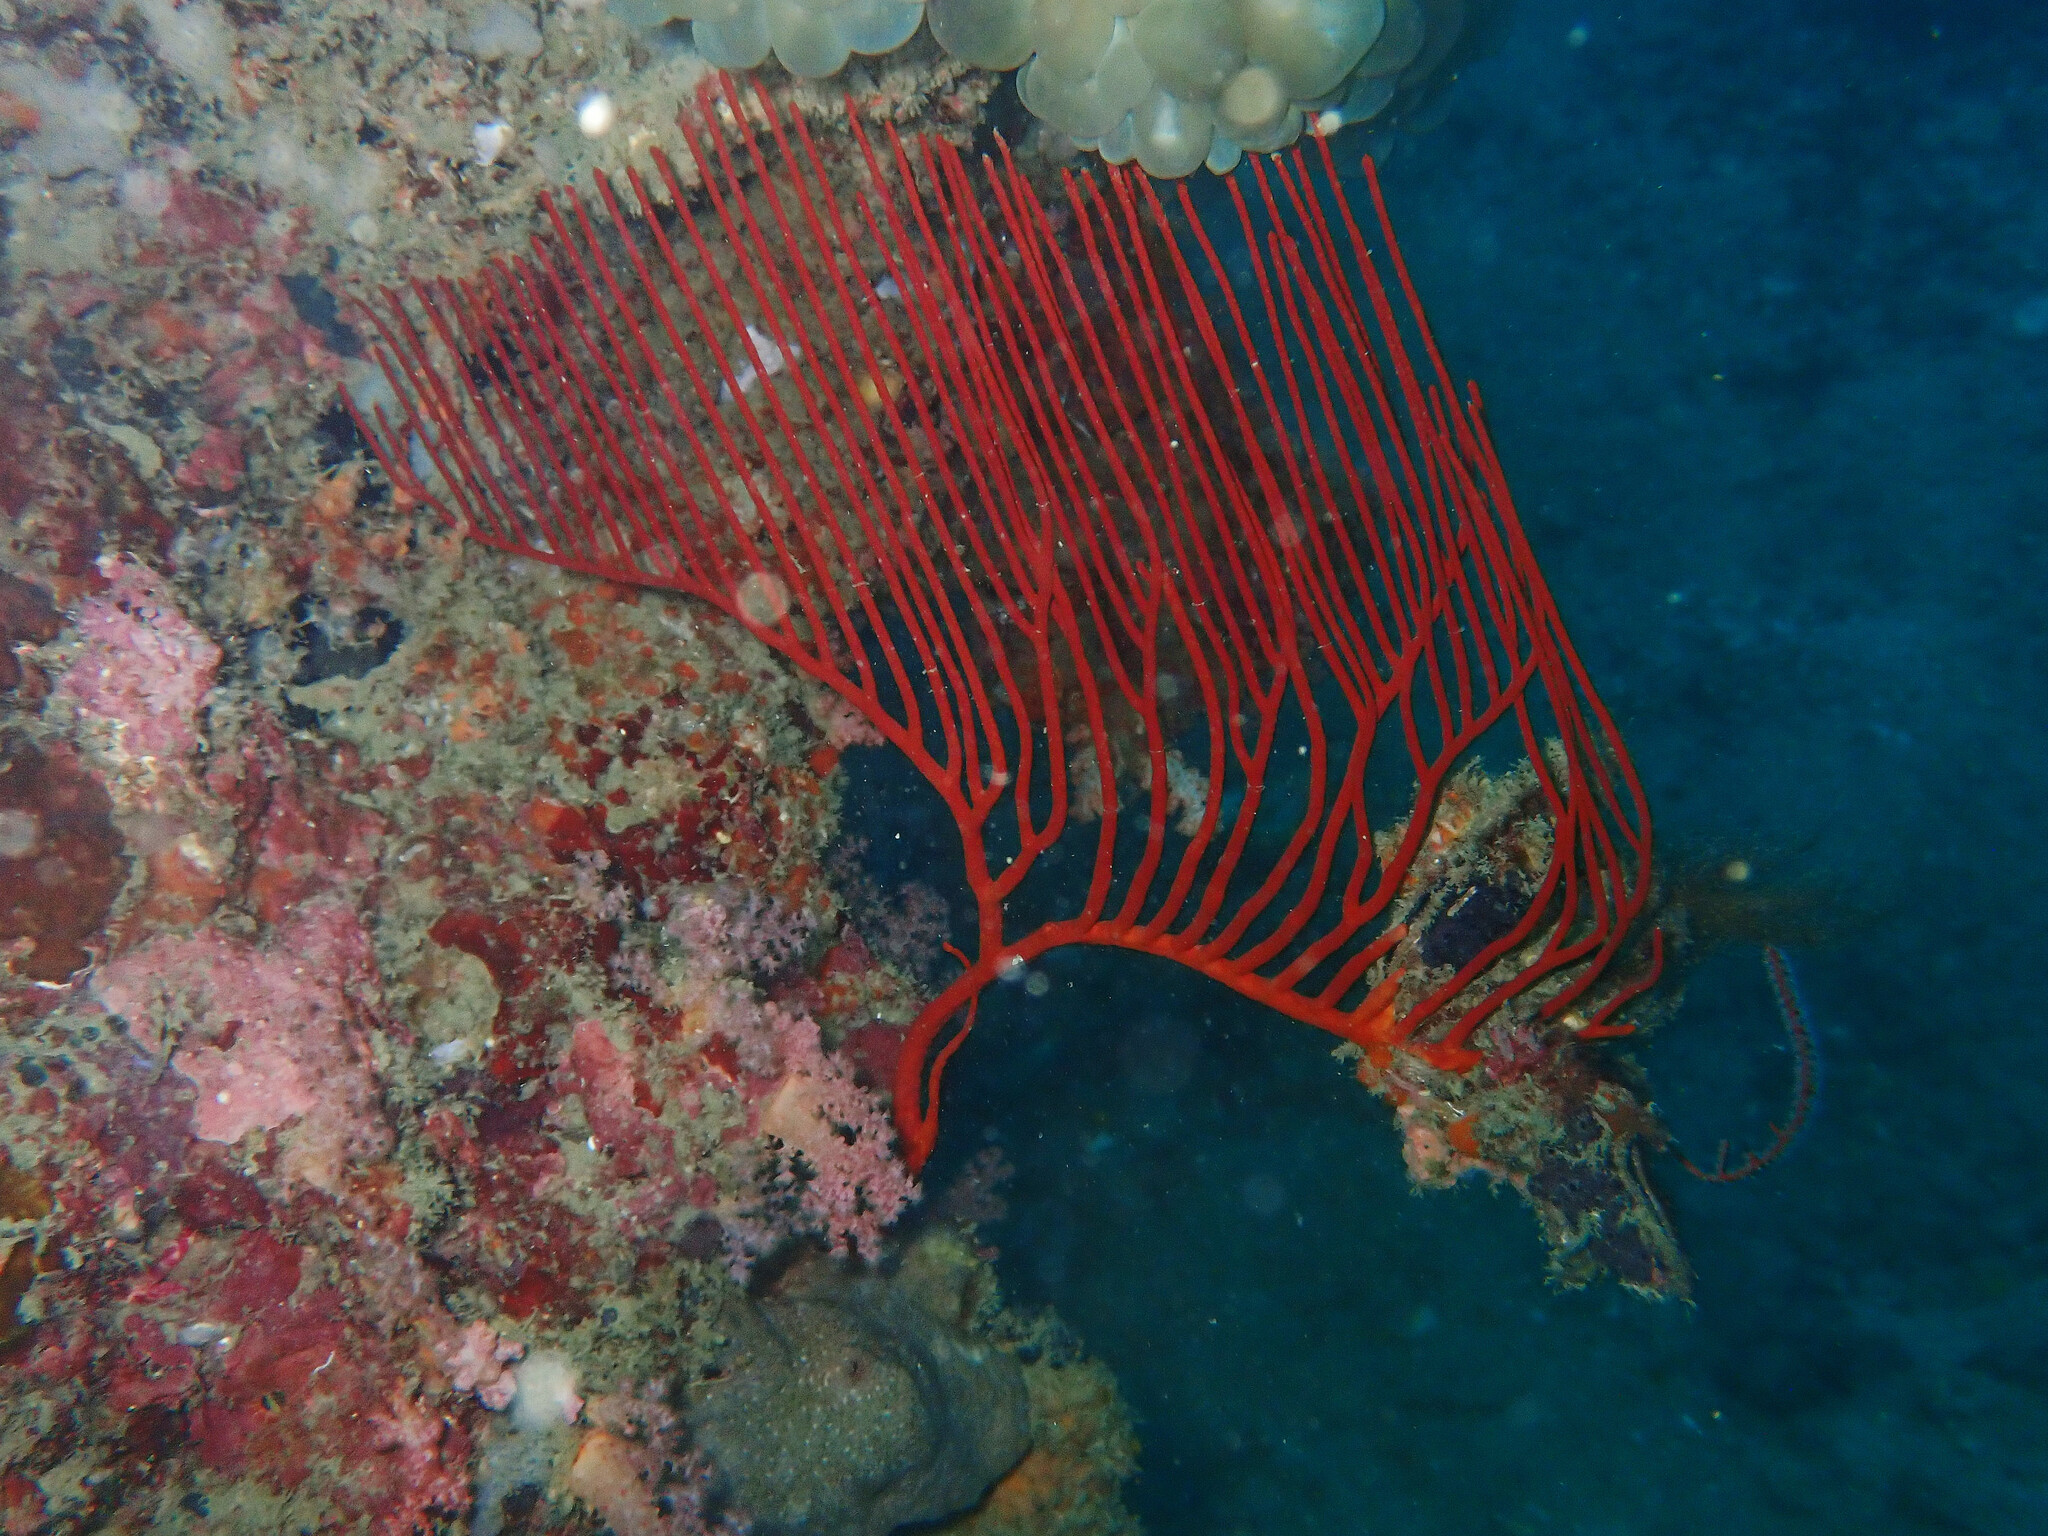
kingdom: Animalia
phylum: Cnidaria
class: Anthozoa
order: Scleralcyonacea
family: Ellisellidae
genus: Ctenocella
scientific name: Ctenocella pectinata
